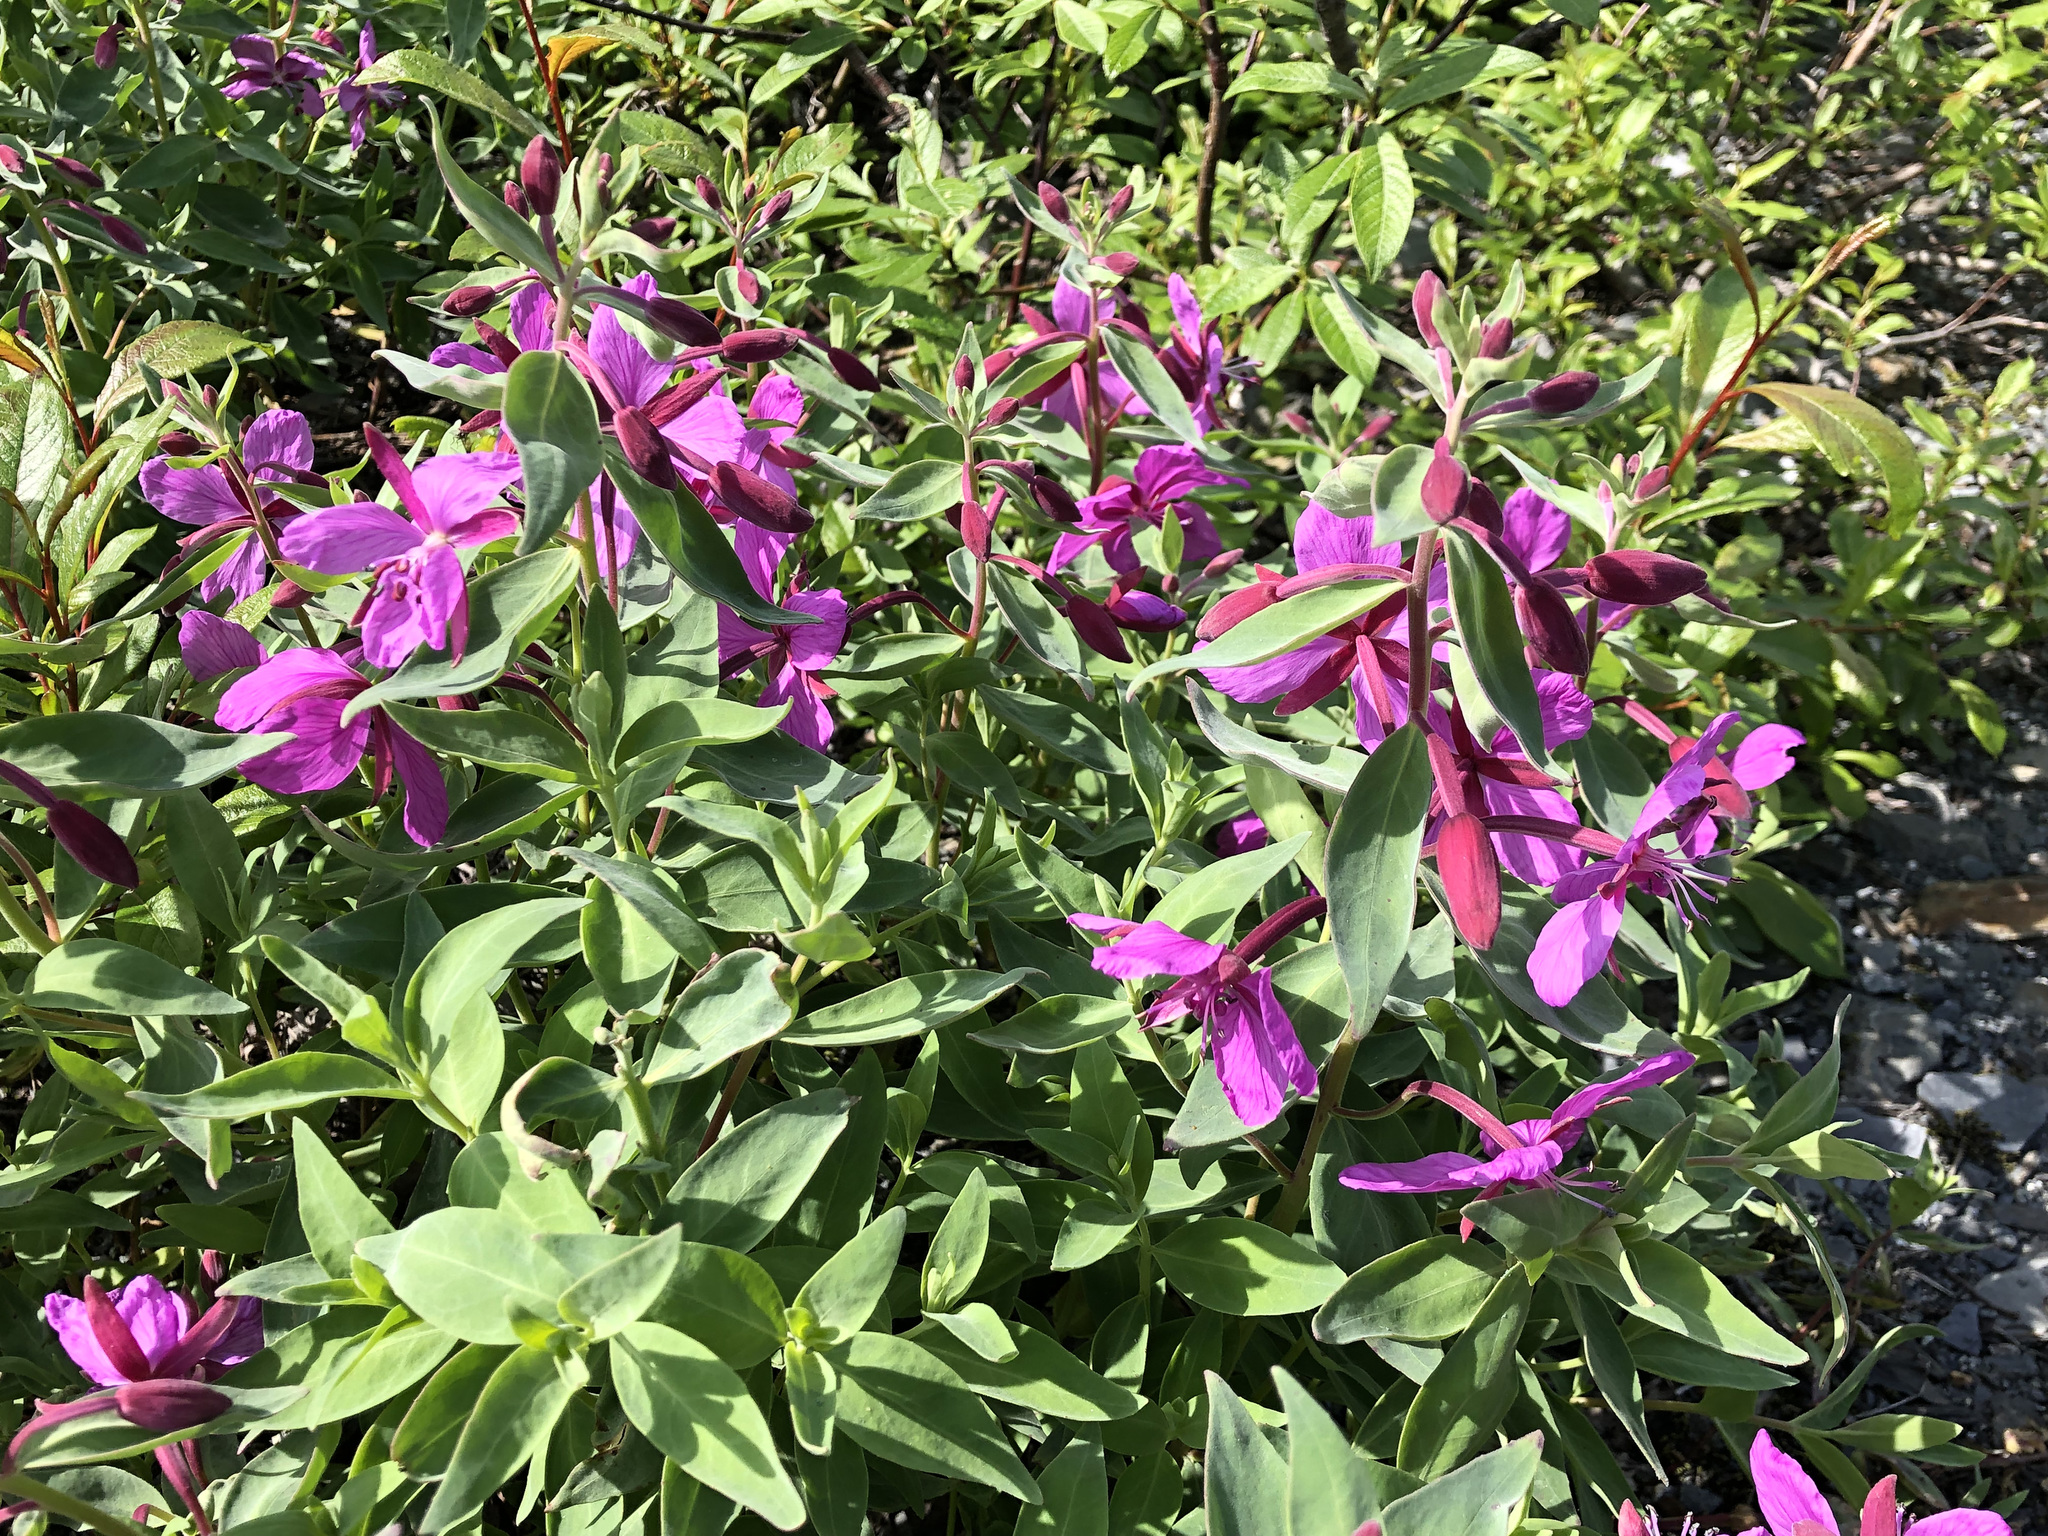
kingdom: Plantae
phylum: Tracheophyta
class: Magnoliopsida
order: Myrtales
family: Onagraceae
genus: Chamaenerion
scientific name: Chamaenerion latifolium
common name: Dwarf fireweed
